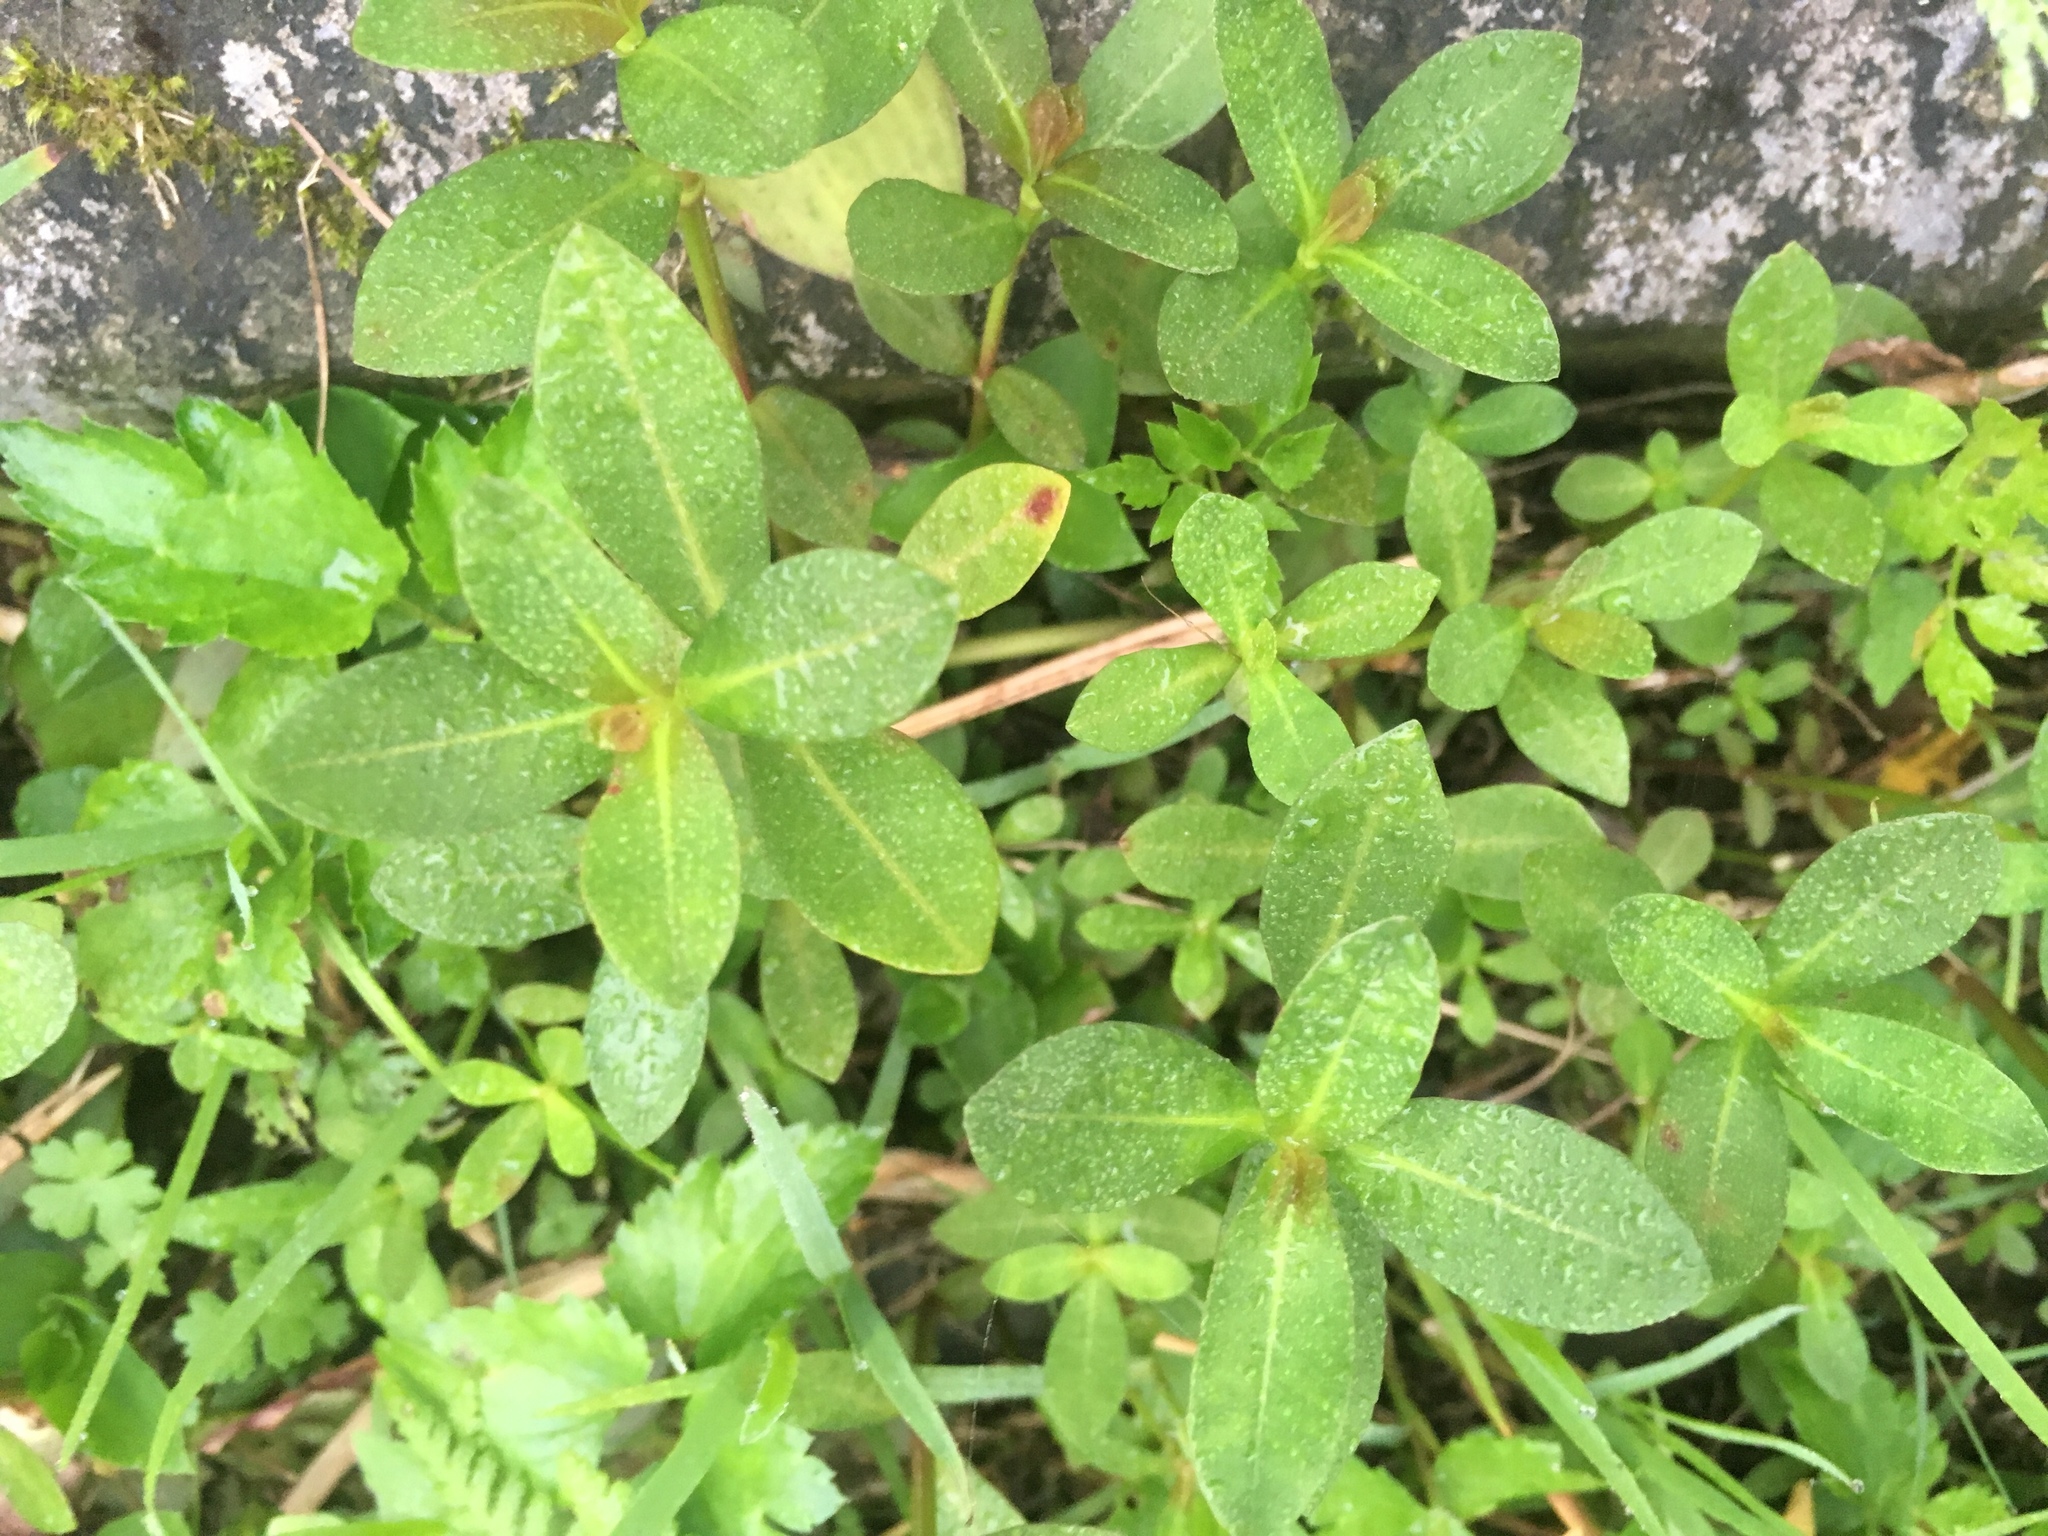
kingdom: Plantae
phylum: Tracheophyta
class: Magnoliopsida
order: Caryophyllales
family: Amaranthaceae
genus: Alternanthera
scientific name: Alternanthera philoxeroides
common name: Alligatorweed
